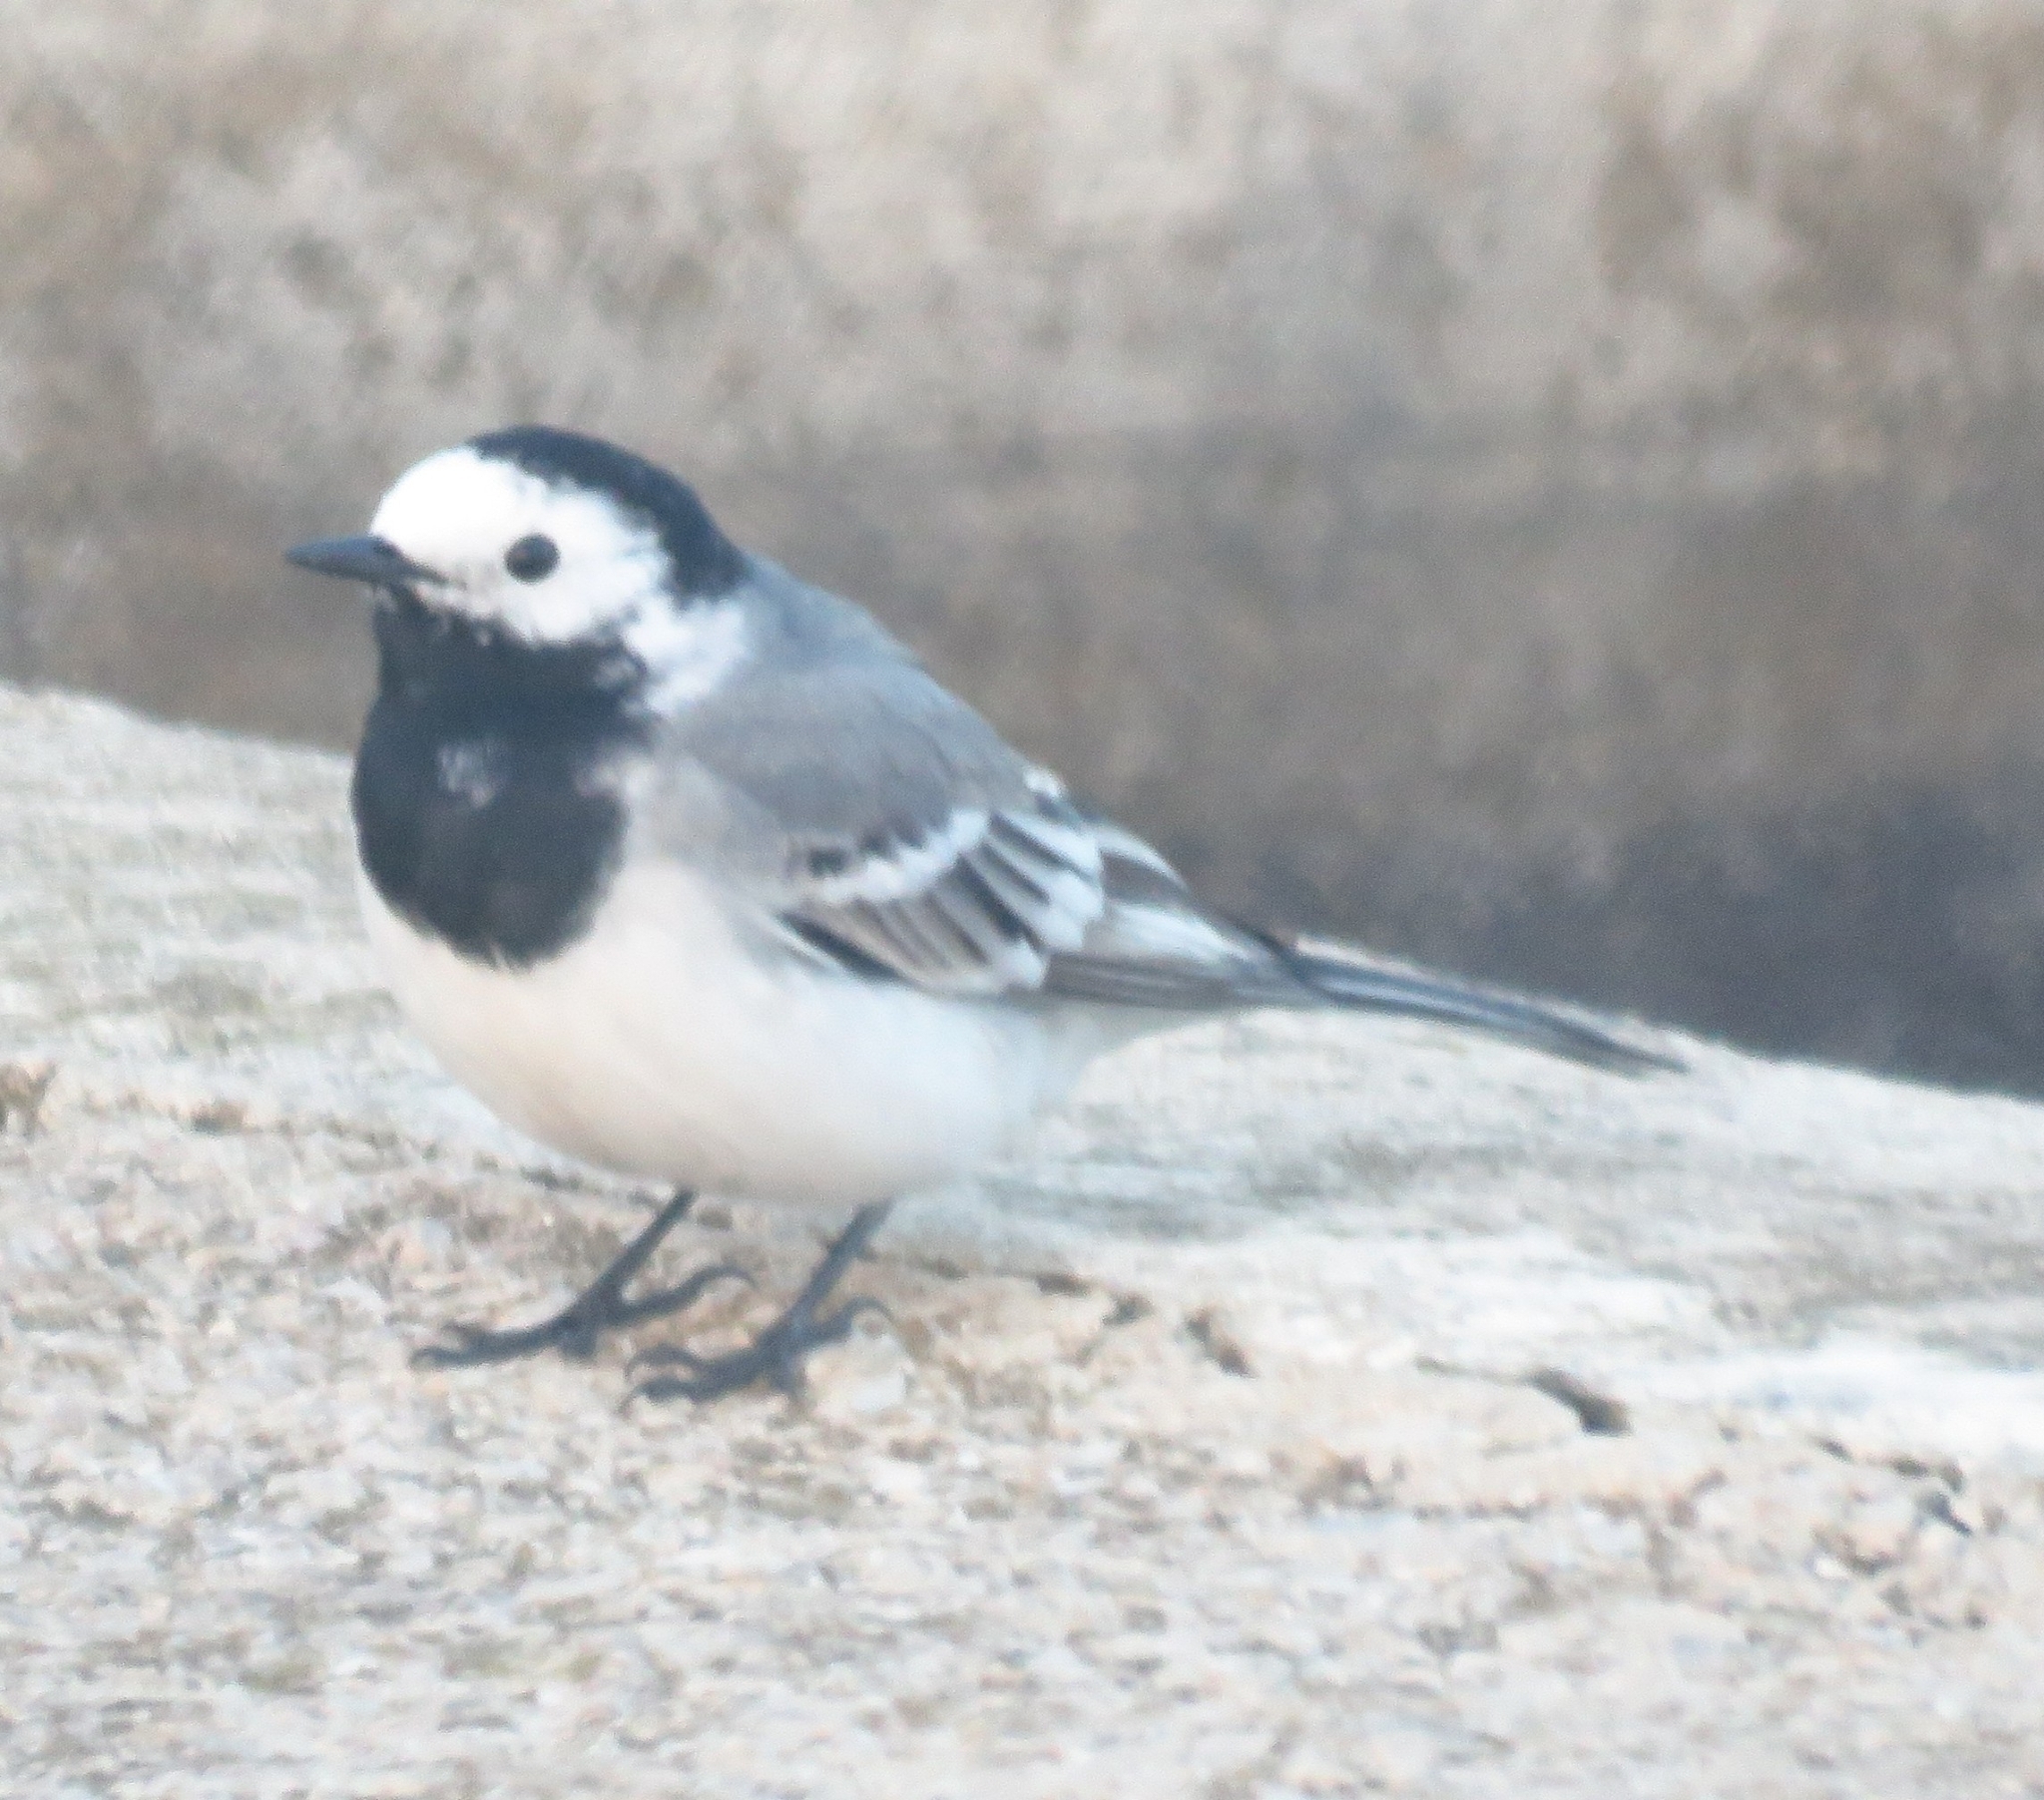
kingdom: Animalia
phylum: Chordata
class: Aves
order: Passeriformes
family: Motacillidae
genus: Motacilla
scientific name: Motacilla alba
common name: White wagtail
